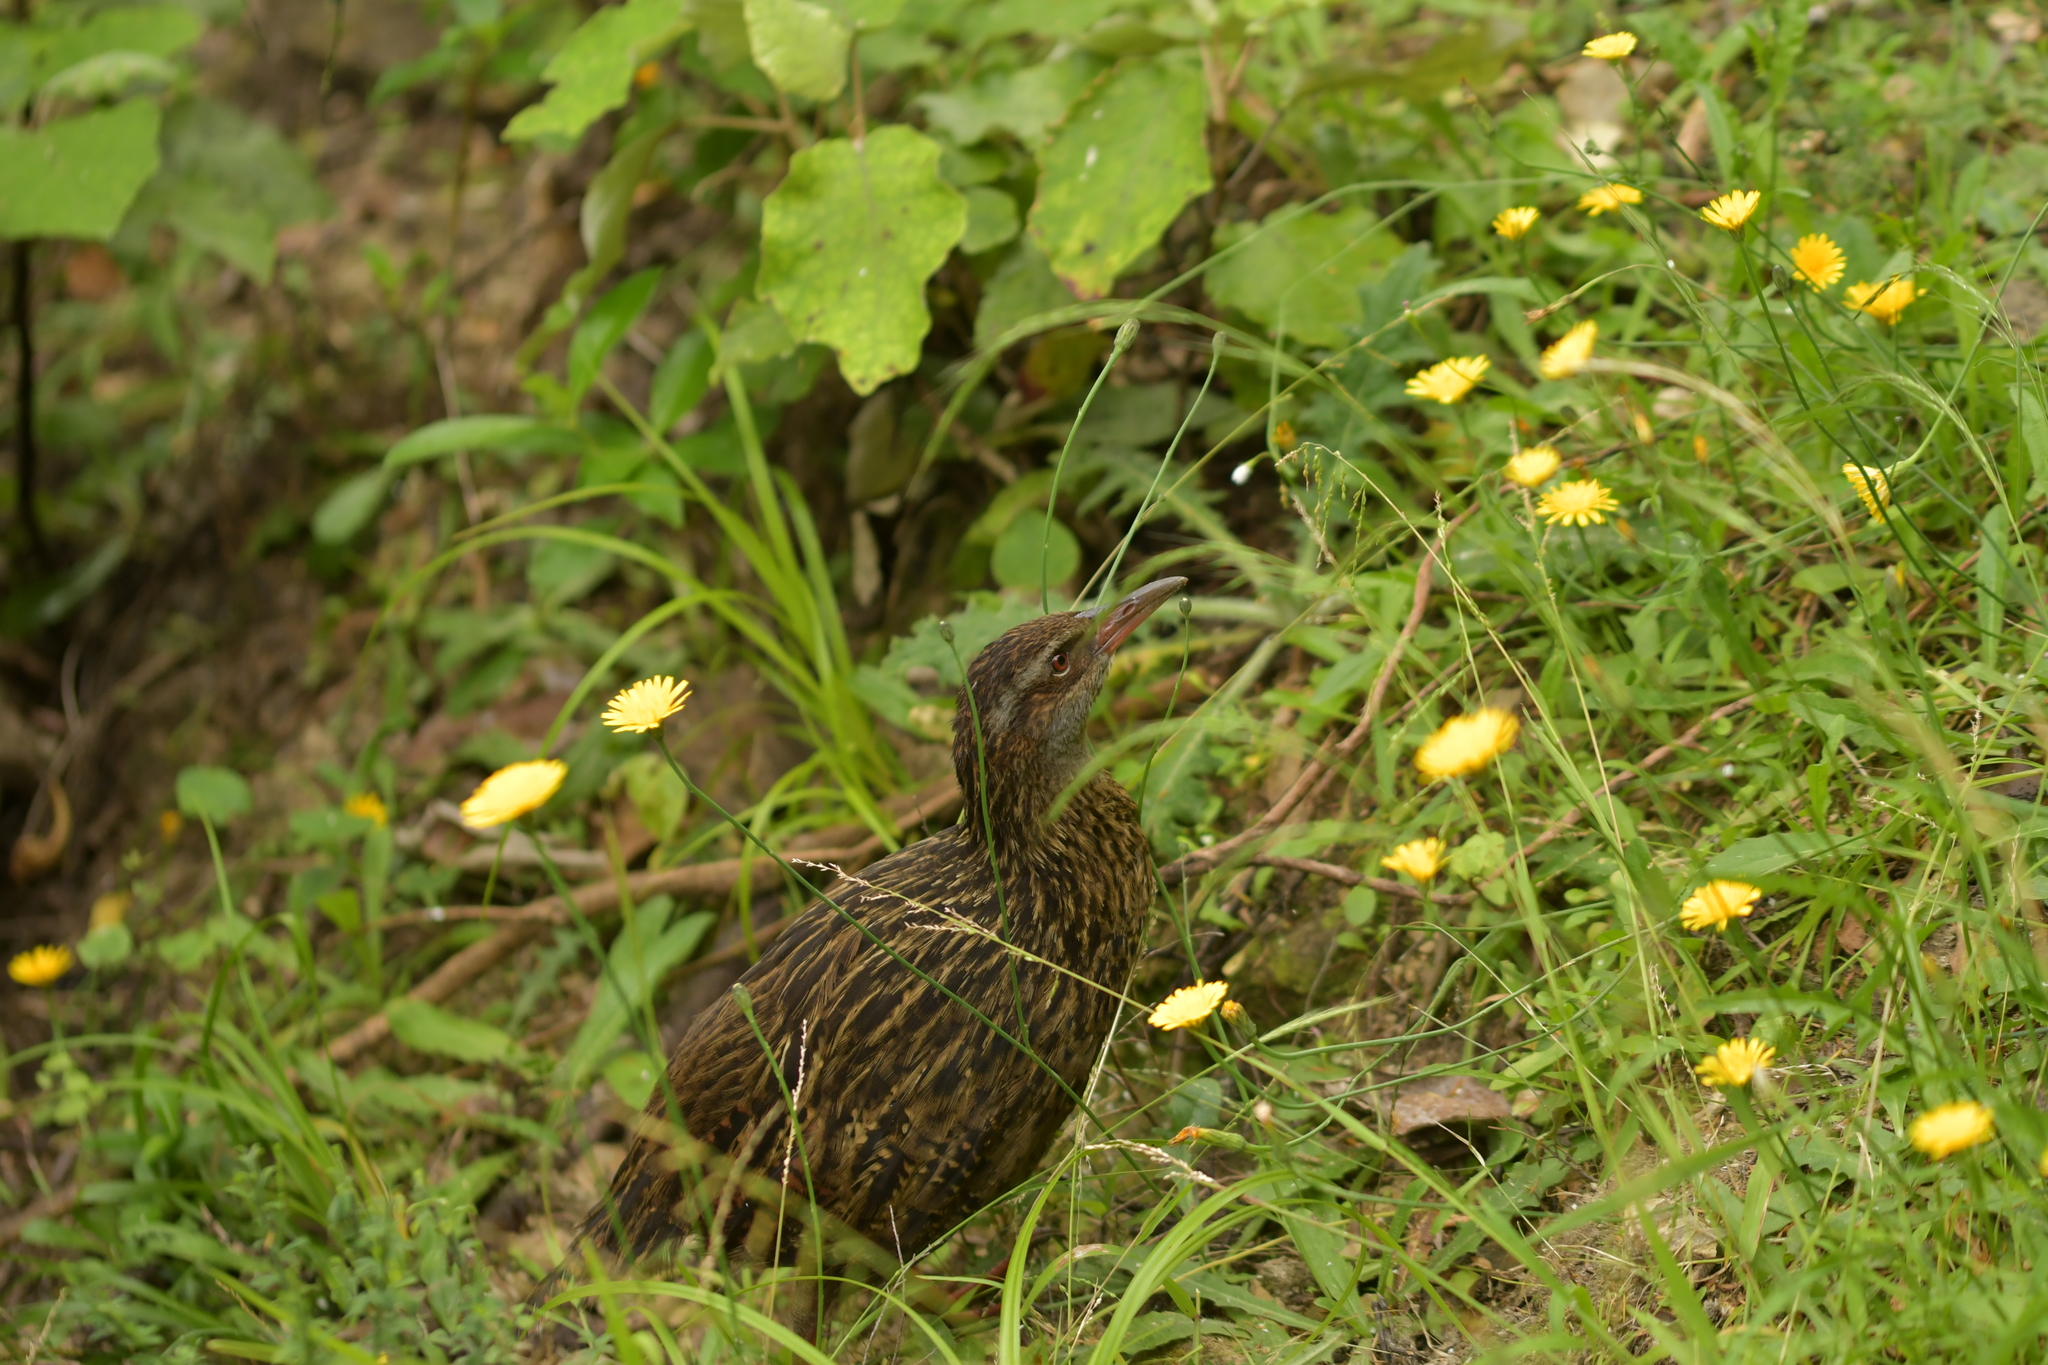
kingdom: Animalia
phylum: Chordata
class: Aves
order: Gruiformes
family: Rallidae
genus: Gallirallus
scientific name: Gallirallus australis
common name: Weka
